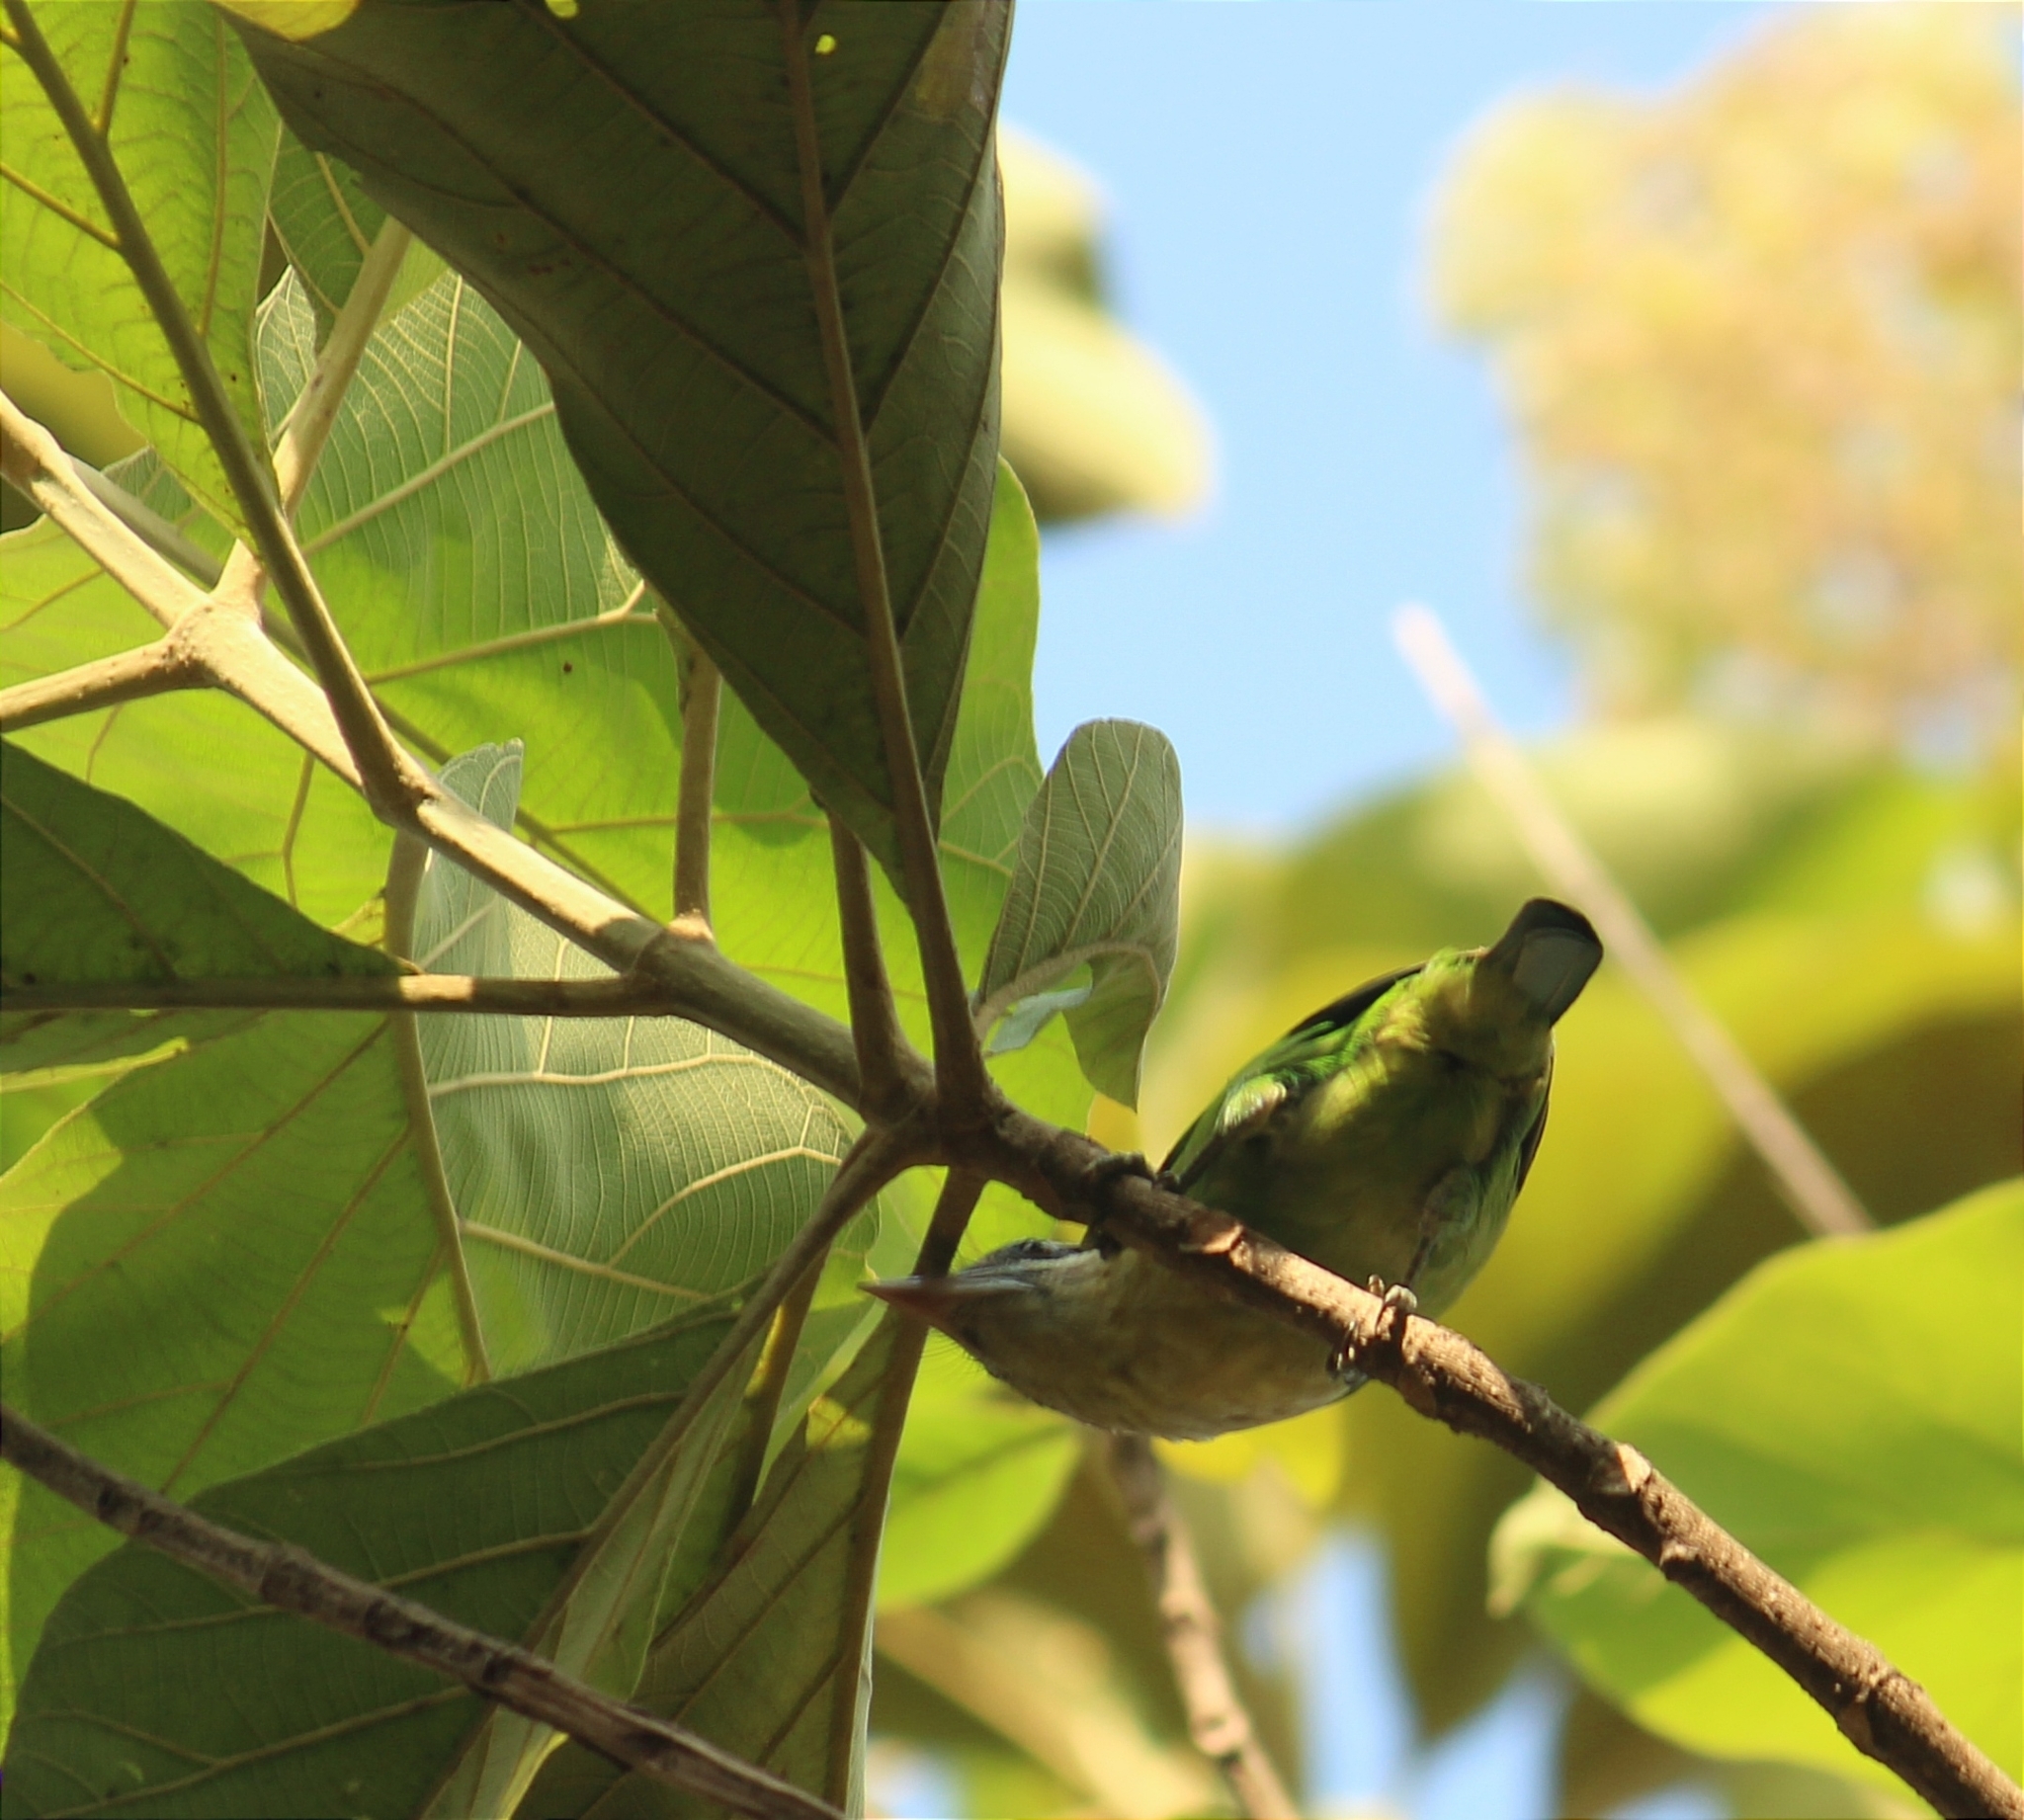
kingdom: Animalia
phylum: Chordata
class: Aves
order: Piciformes
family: Megalaimidae
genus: Psilopogon
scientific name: Psilopogon viridis
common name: White-cheeked barbet
